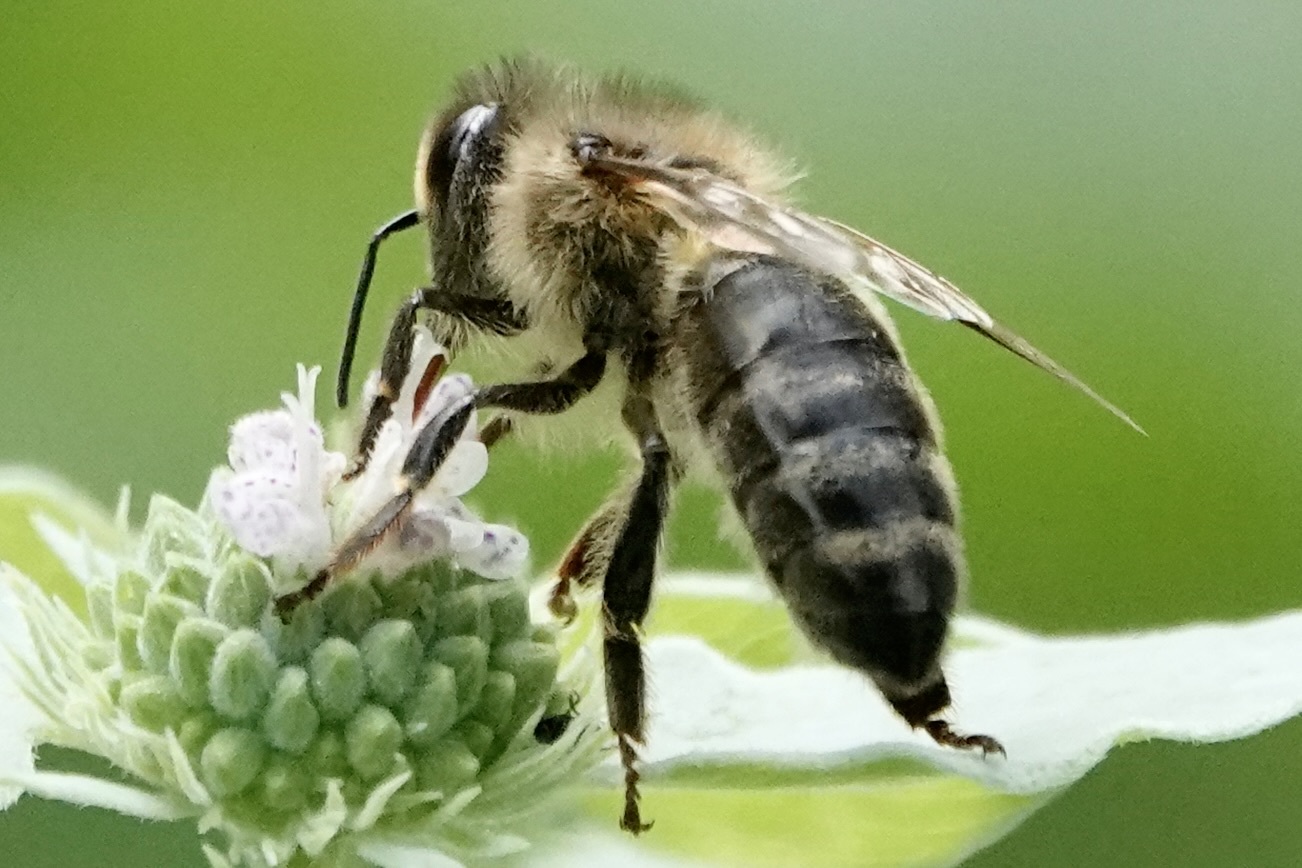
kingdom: Animalia
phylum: Arthropoda
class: Insecta
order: Hymenoptera
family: Apidae
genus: Apis
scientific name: Apis mellifera
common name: Honey bee
